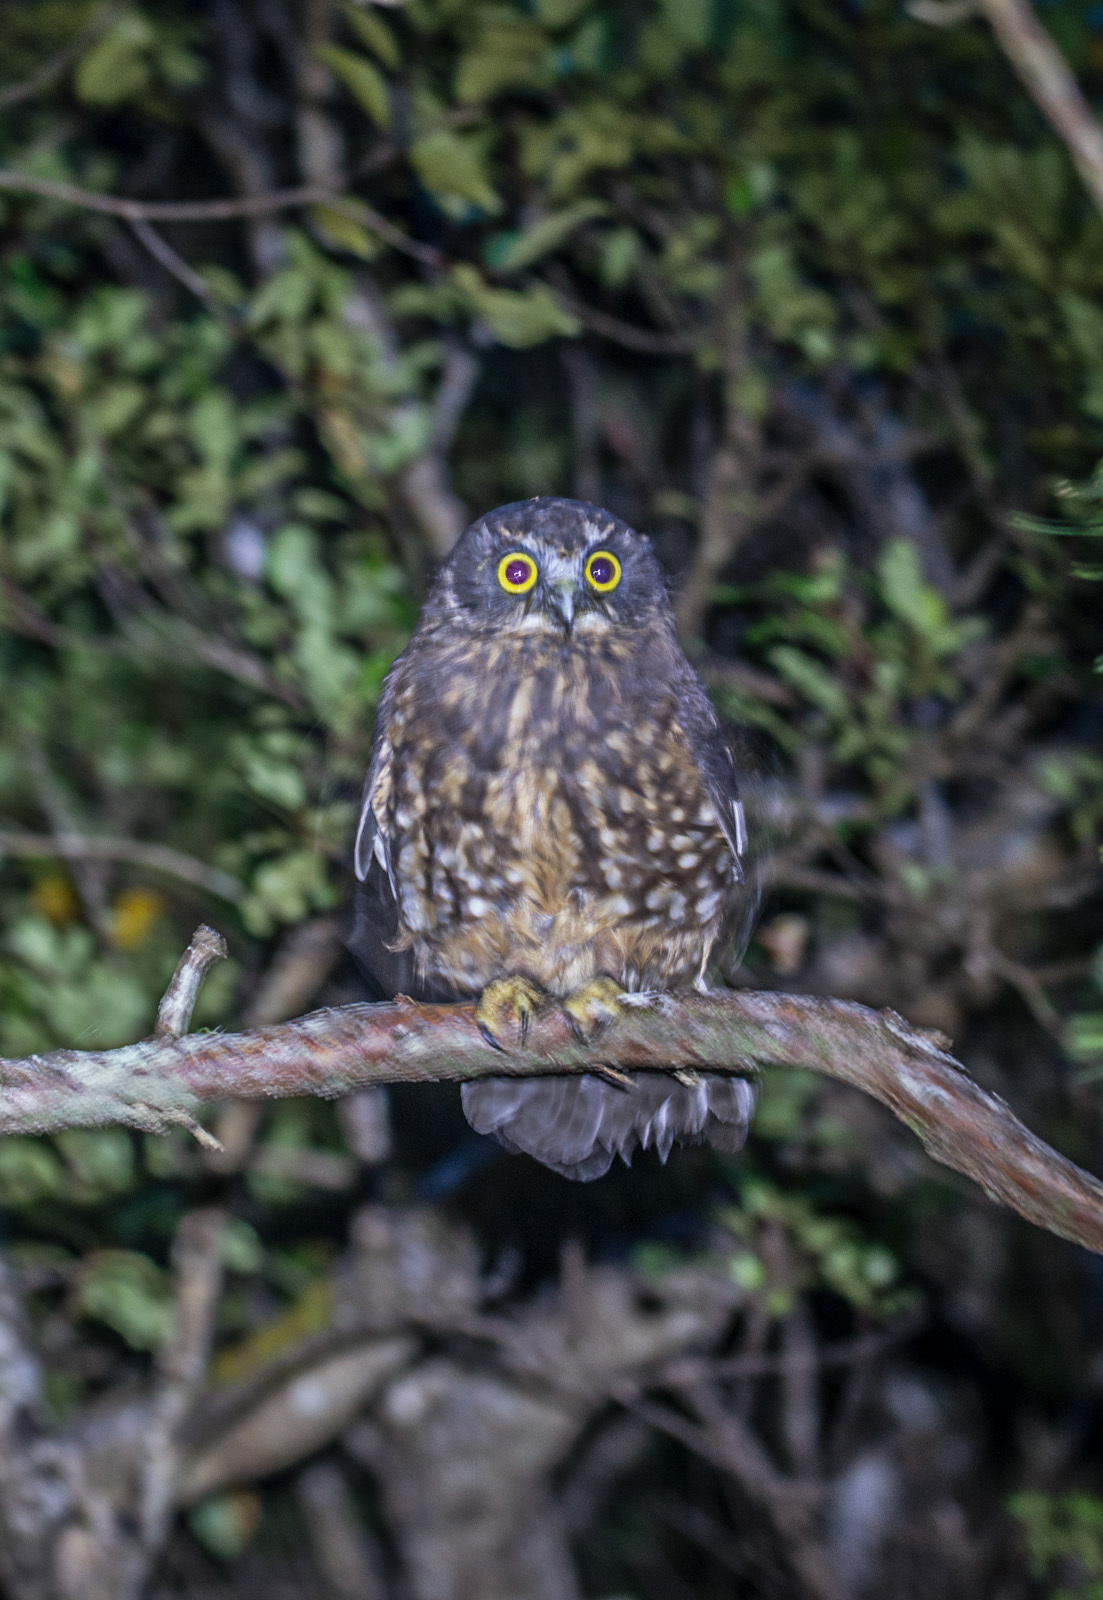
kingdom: Animalia
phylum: Chordata
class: Aves
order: Strigiformes
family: Strigidae
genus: Ninox
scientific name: Ninox novaeseelandiae
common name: Morepork
